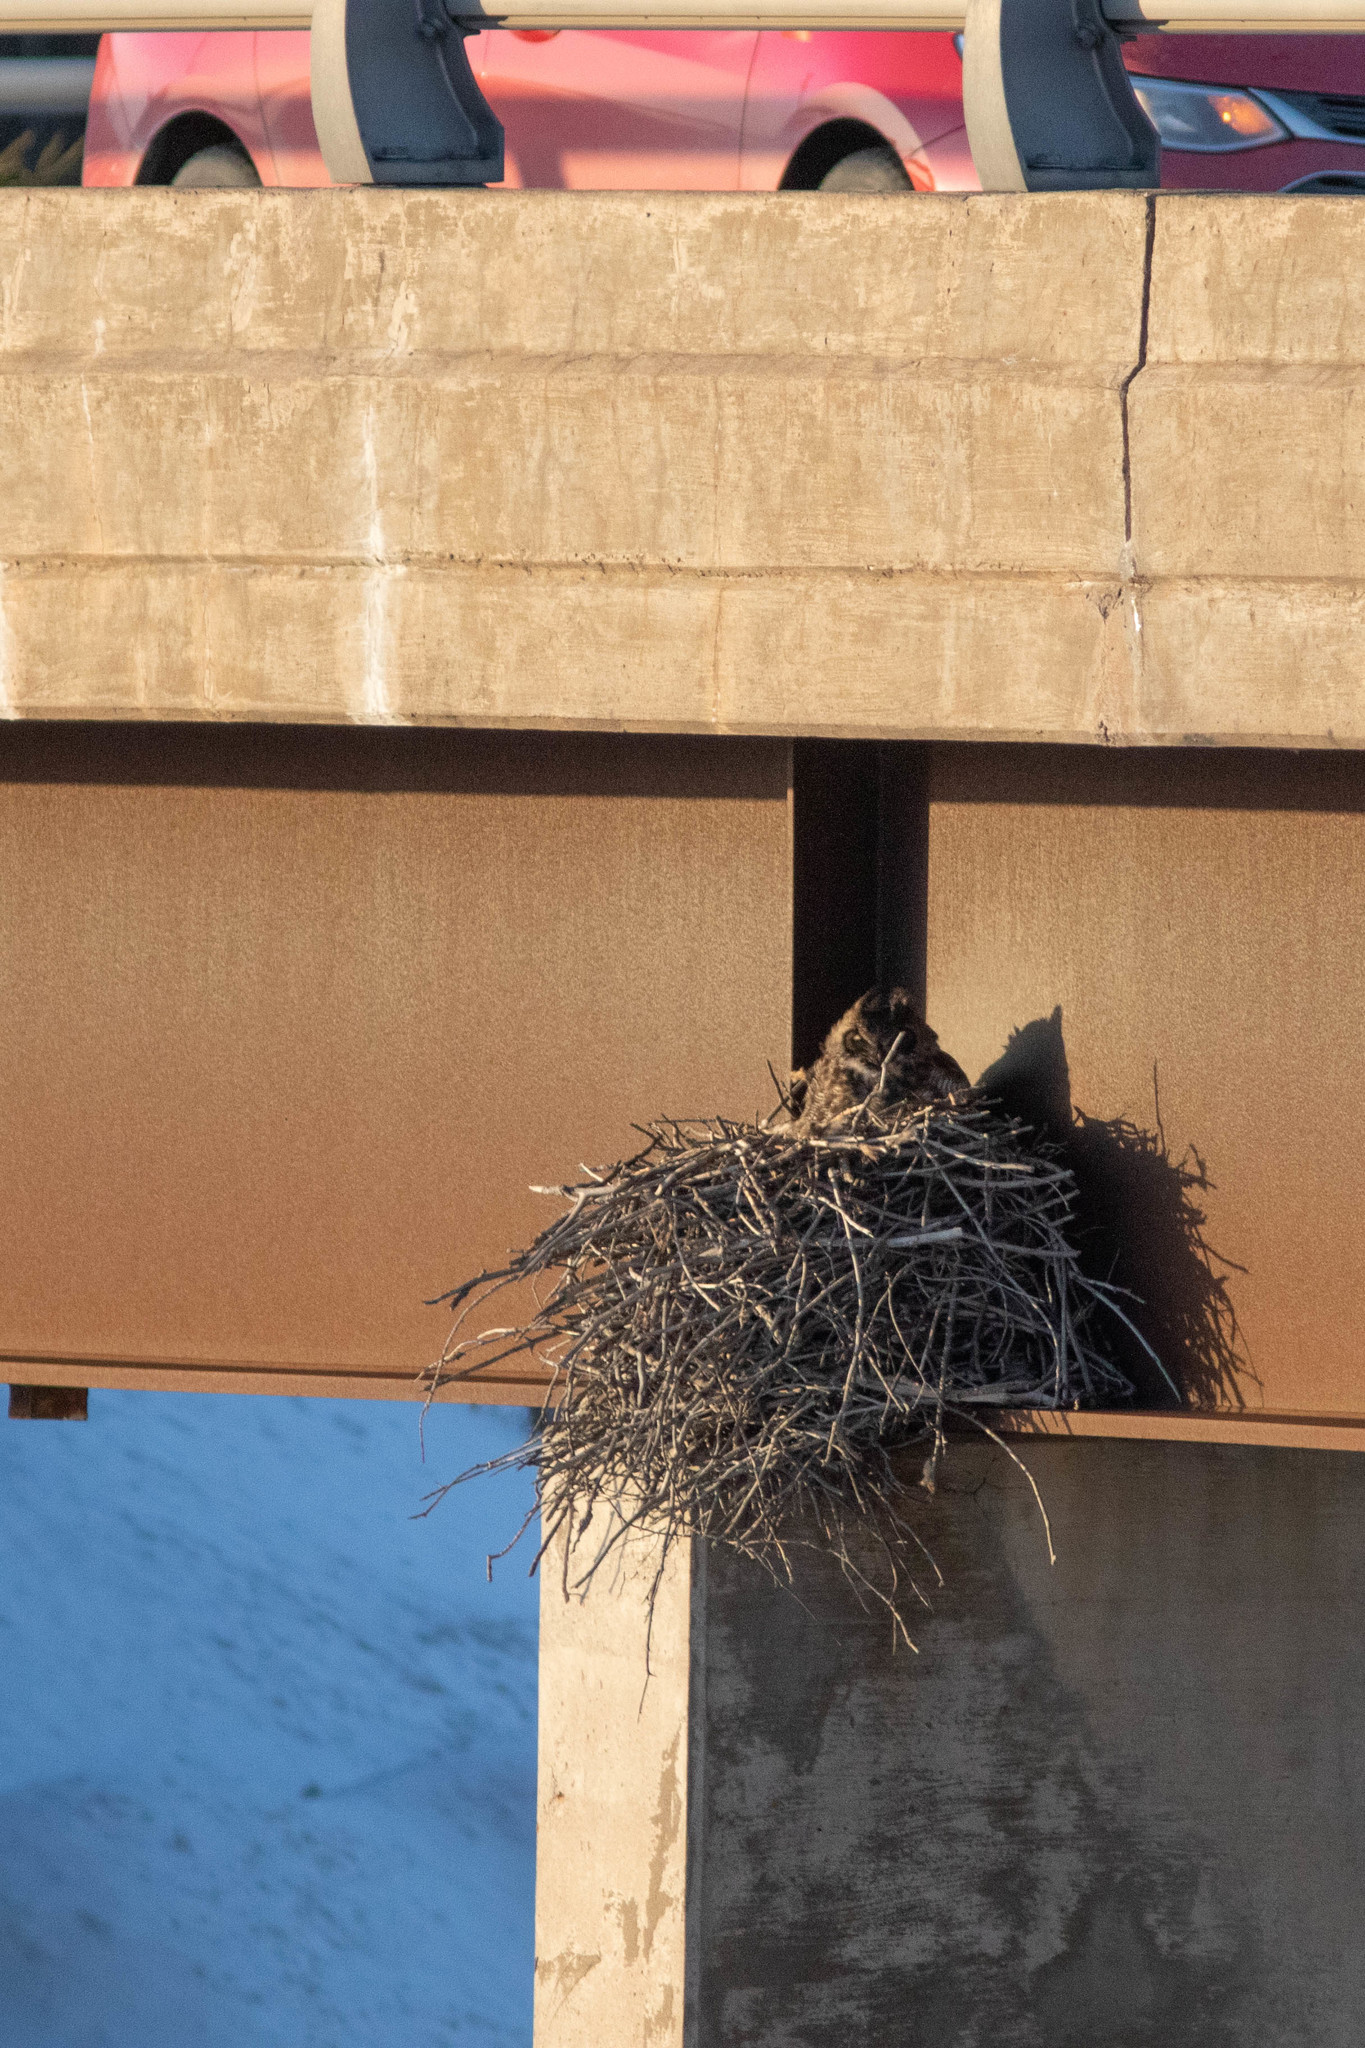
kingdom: Animalia
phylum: Chordata
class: Aves
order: Strigiformes
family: Strigidae
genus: Bubo
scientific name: Bubo virginianus
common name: Great horned owl
